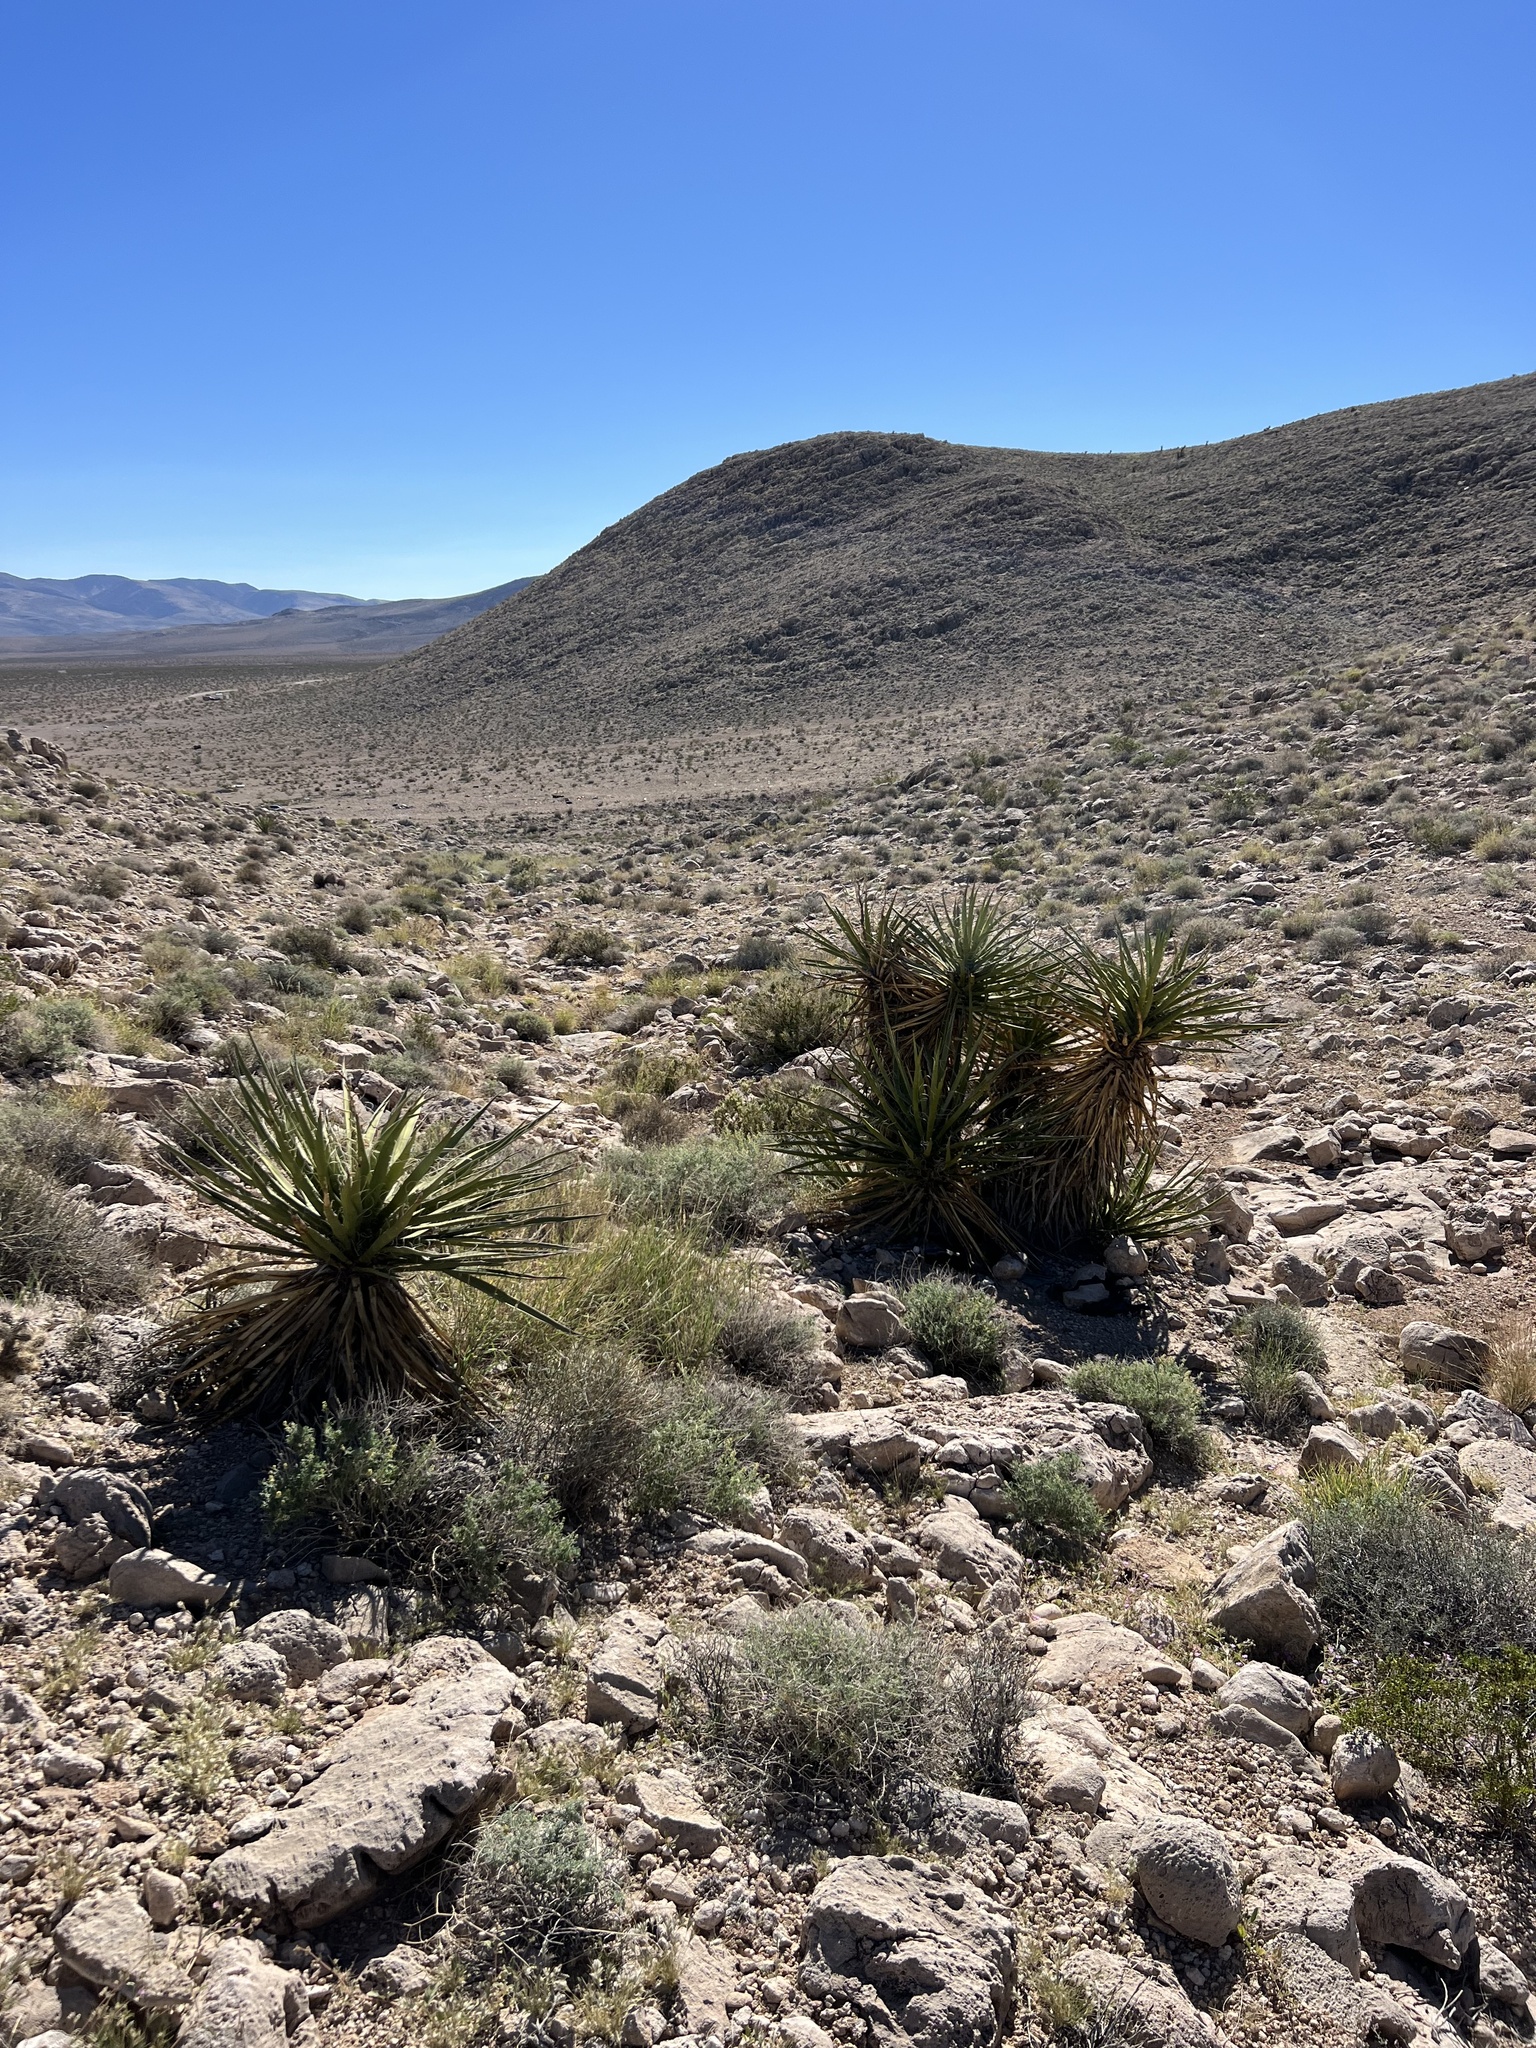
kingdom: Plantae
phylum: Tracheophyta
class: Liliopsida
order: Asparagales
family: Asparagaceae
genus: Yucca
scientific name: Yucca schidigera
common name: Mojave yucca
